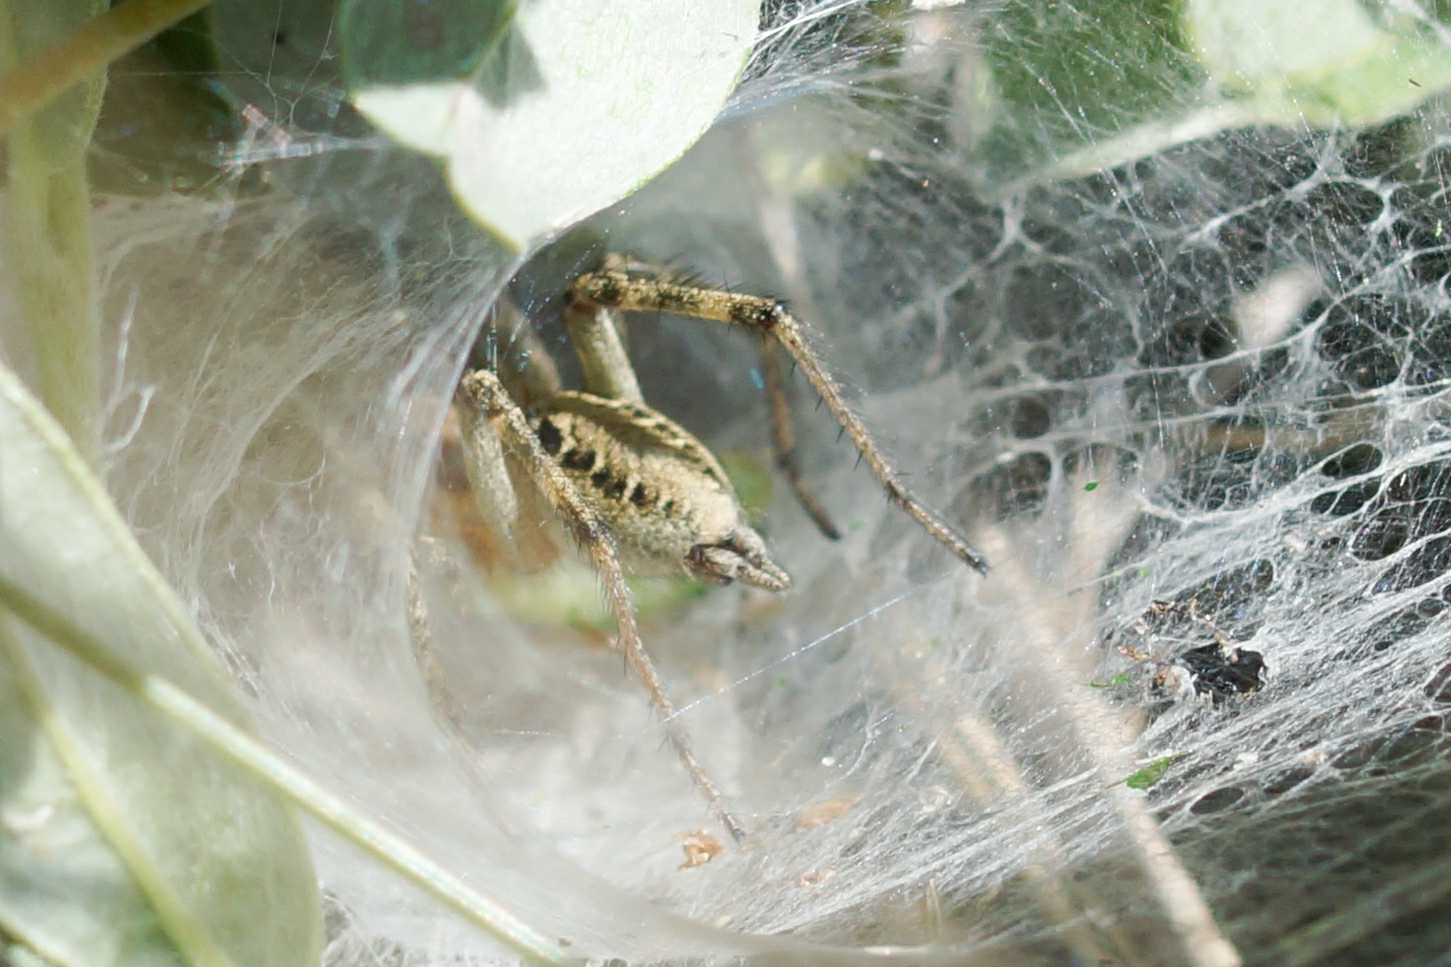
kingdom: Animalia
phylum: Arthropoda
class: Arachnida
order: Araneae
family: Agelenidae
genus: Agelena
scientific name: Agelena labyrinthica
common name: Labyrinth spider
